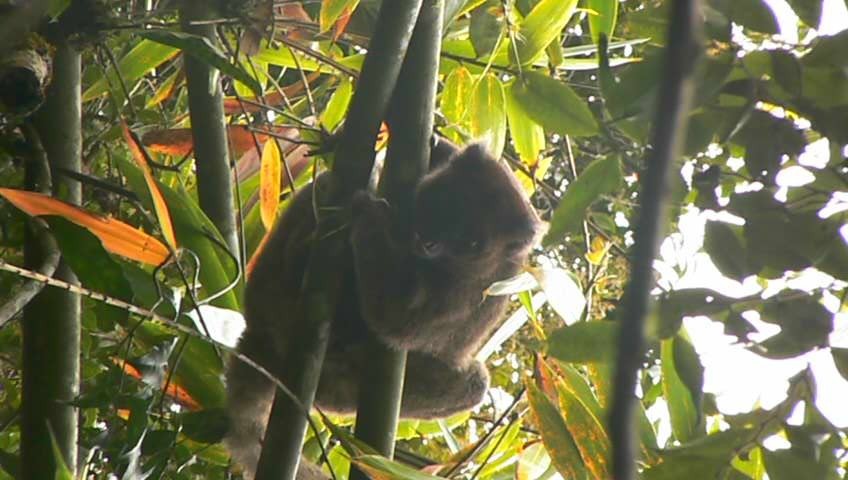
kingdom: Animalia
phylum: Chordata
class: Mammalia
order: Primates
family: Lemuridae
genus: Prolemur
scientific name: Prolemur simus
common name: Greater bamboo lemur
